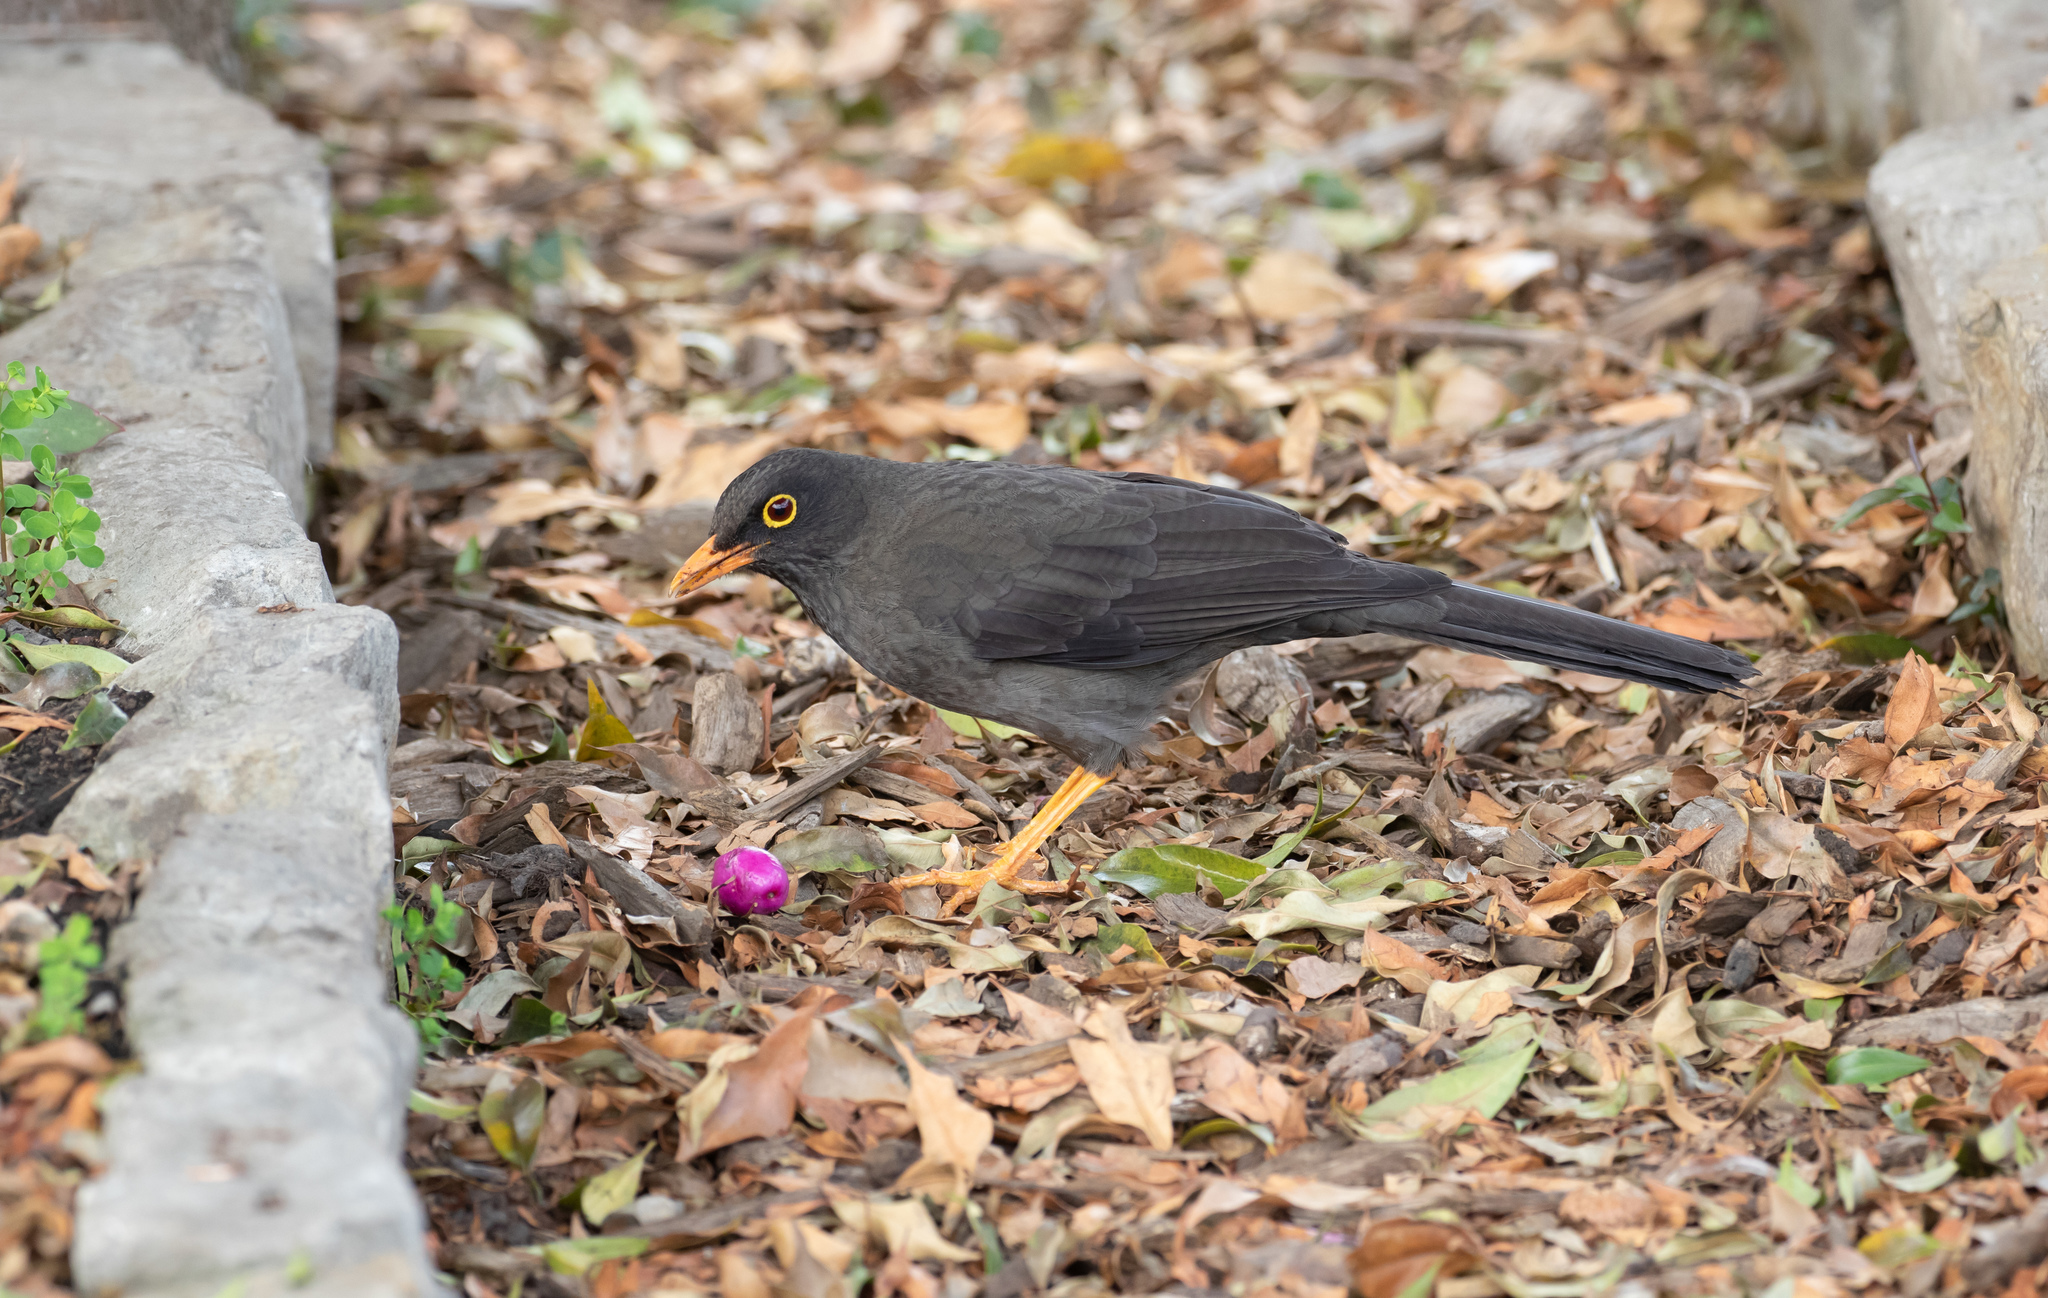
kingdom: Animalia
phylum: Chordata
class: Aves
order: Passeriformes
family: Turdidae
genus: Turdus
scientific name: Turdus fuscater
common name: Great thrush
